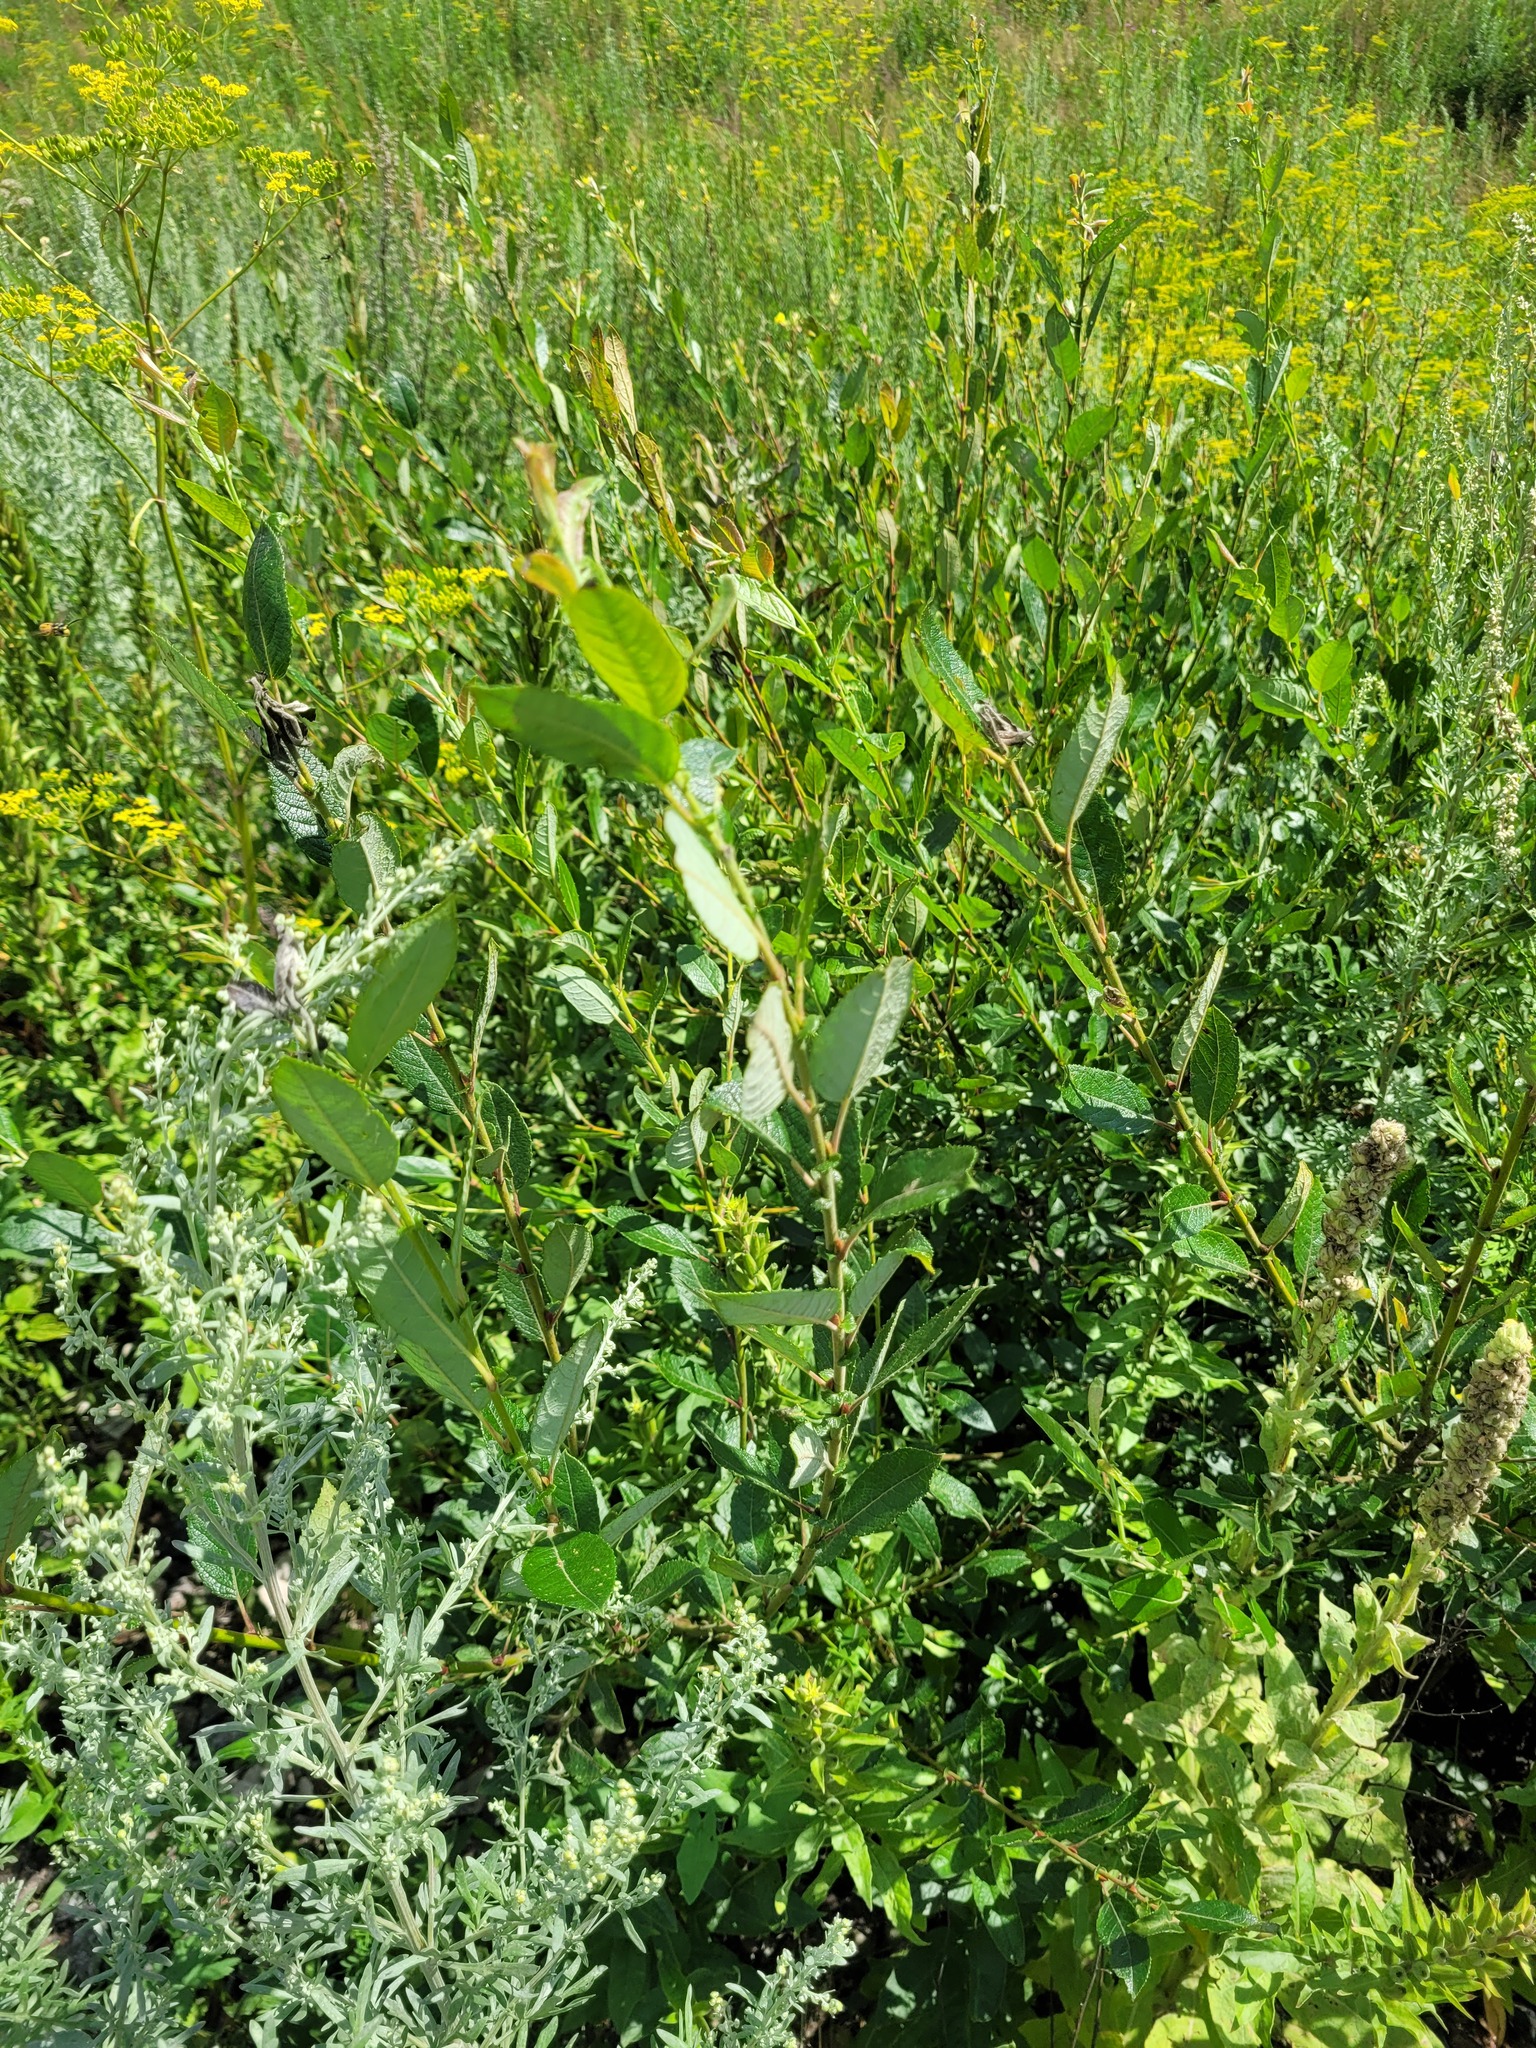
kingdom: Plantae
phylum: Tracheophyta
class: Magnoliopsida
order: Malpighiales
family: Salicaceae
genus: Salix
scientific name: Salix myrsinifolia
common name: Dark-leaved willow
